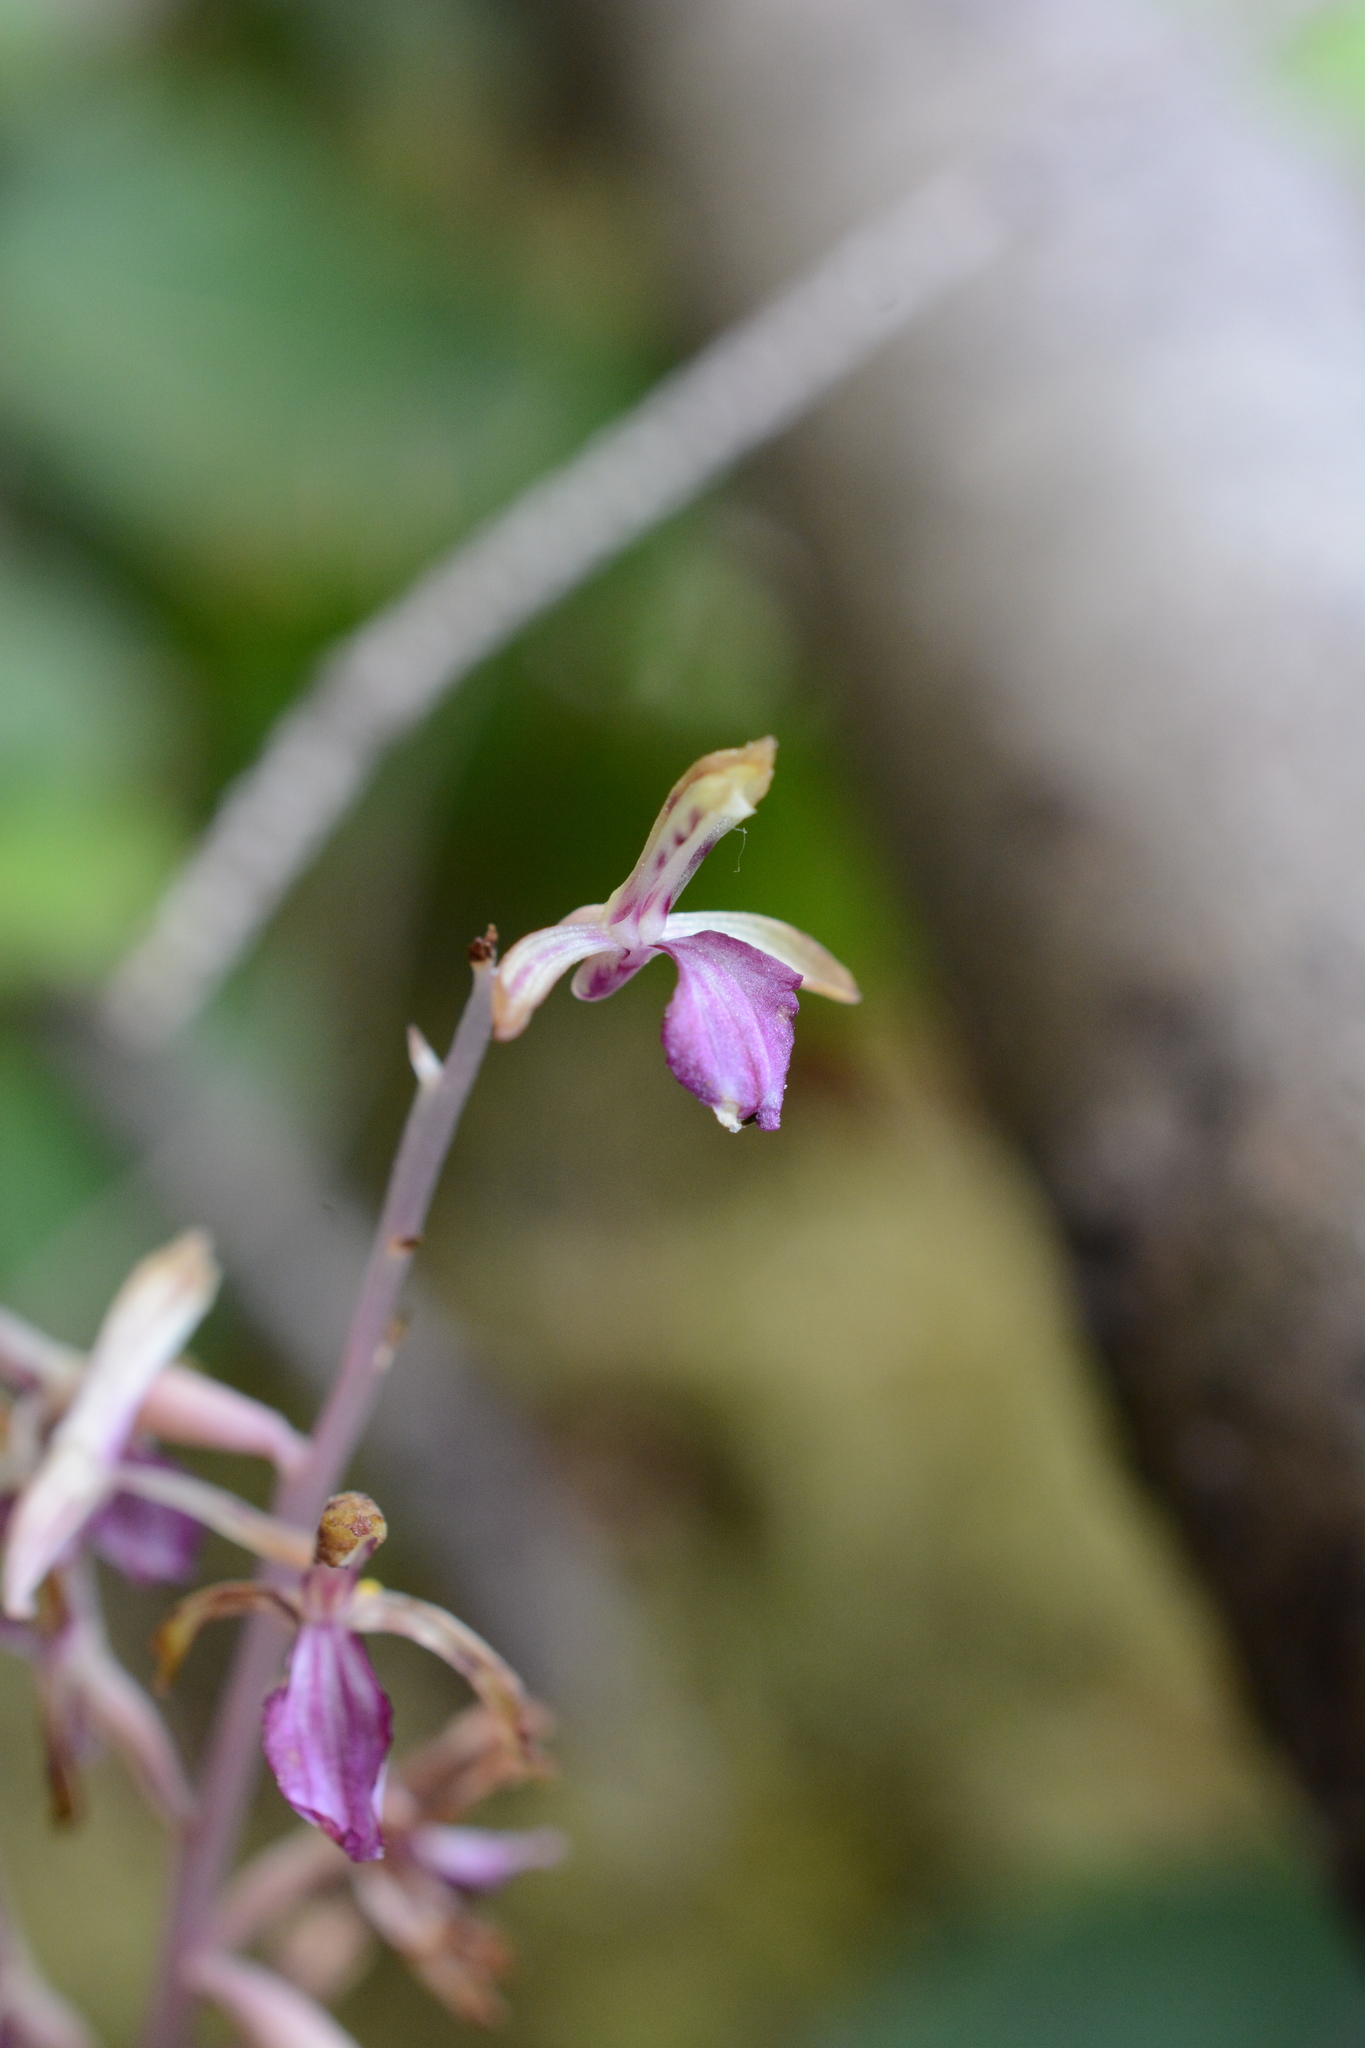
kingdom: Plantae
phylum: Tracheophyta
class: Liliopsida
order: Asparagales
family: Orchidaceae
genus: Corallorhiza
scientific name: Corallorhiza mertensiana
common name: Pacific coralroot
